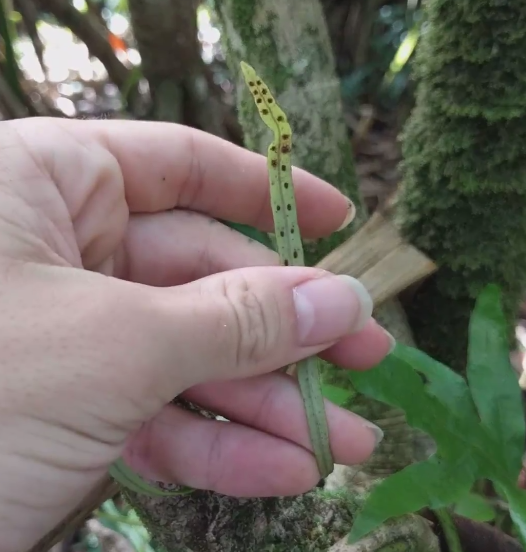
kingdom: Plantae
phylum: Tracheophyta
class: Polypodiopsida
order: Polypodiales
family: Polypodiaceae
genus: Lepisorus
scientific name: Lepisorus thunbergianus
